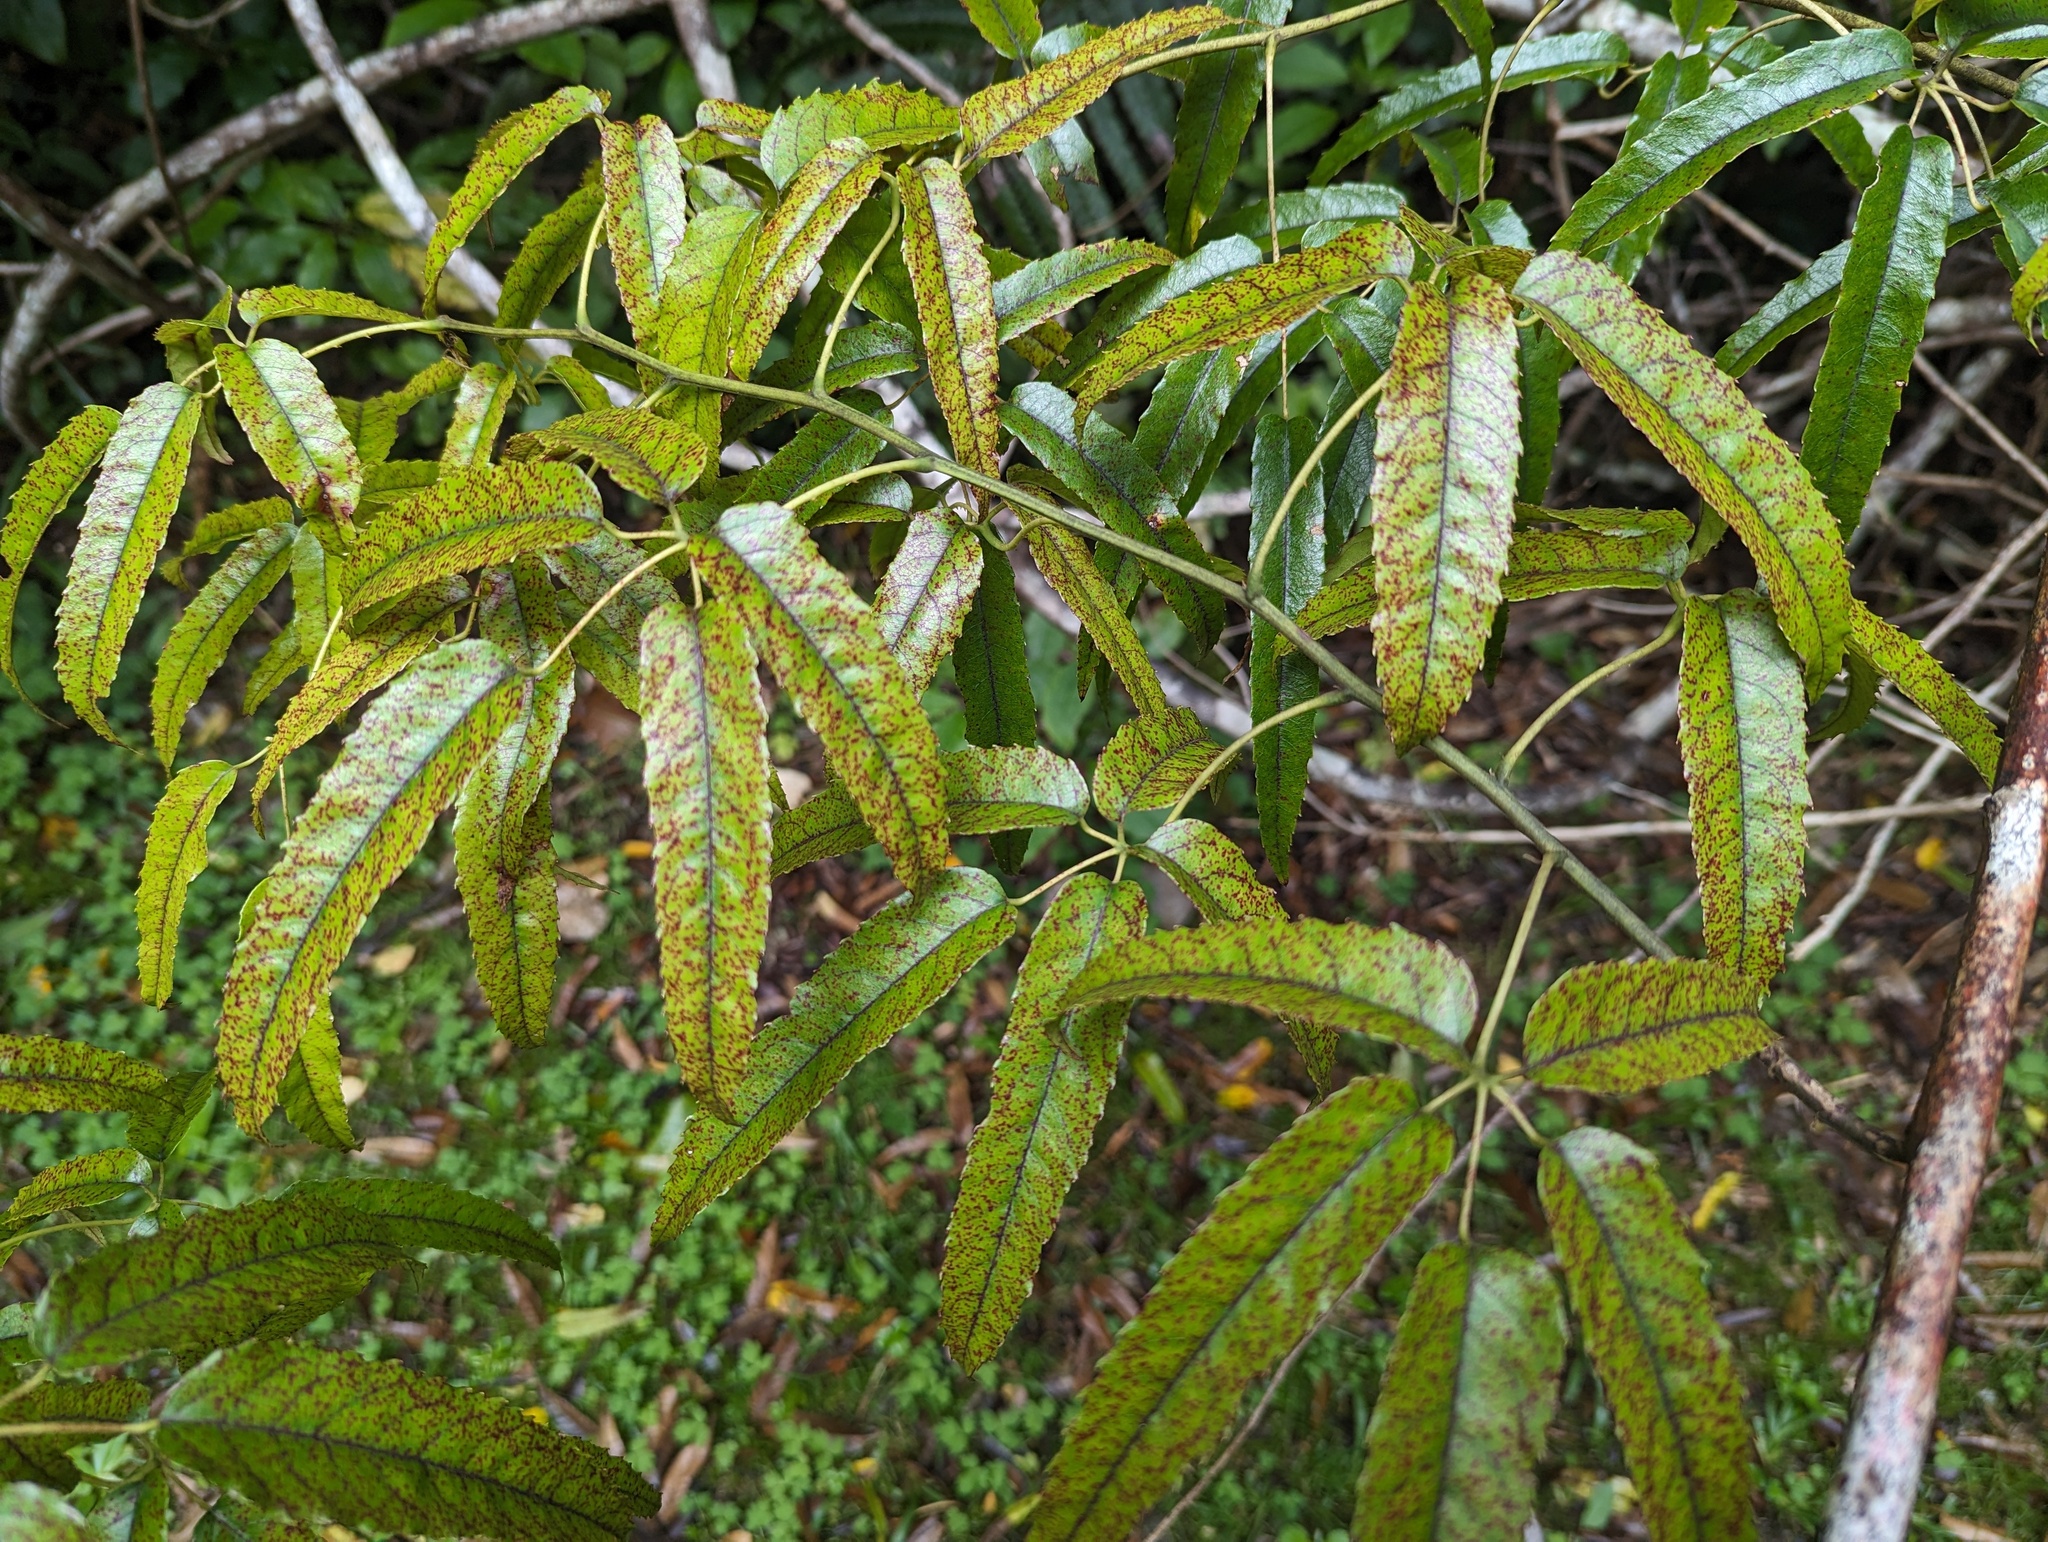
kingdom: Plantae
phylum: Tracheophyta
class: Magnoliopsida
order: Rosales
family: Rosaceae
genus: Rubus
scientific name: Rubus cissoides
